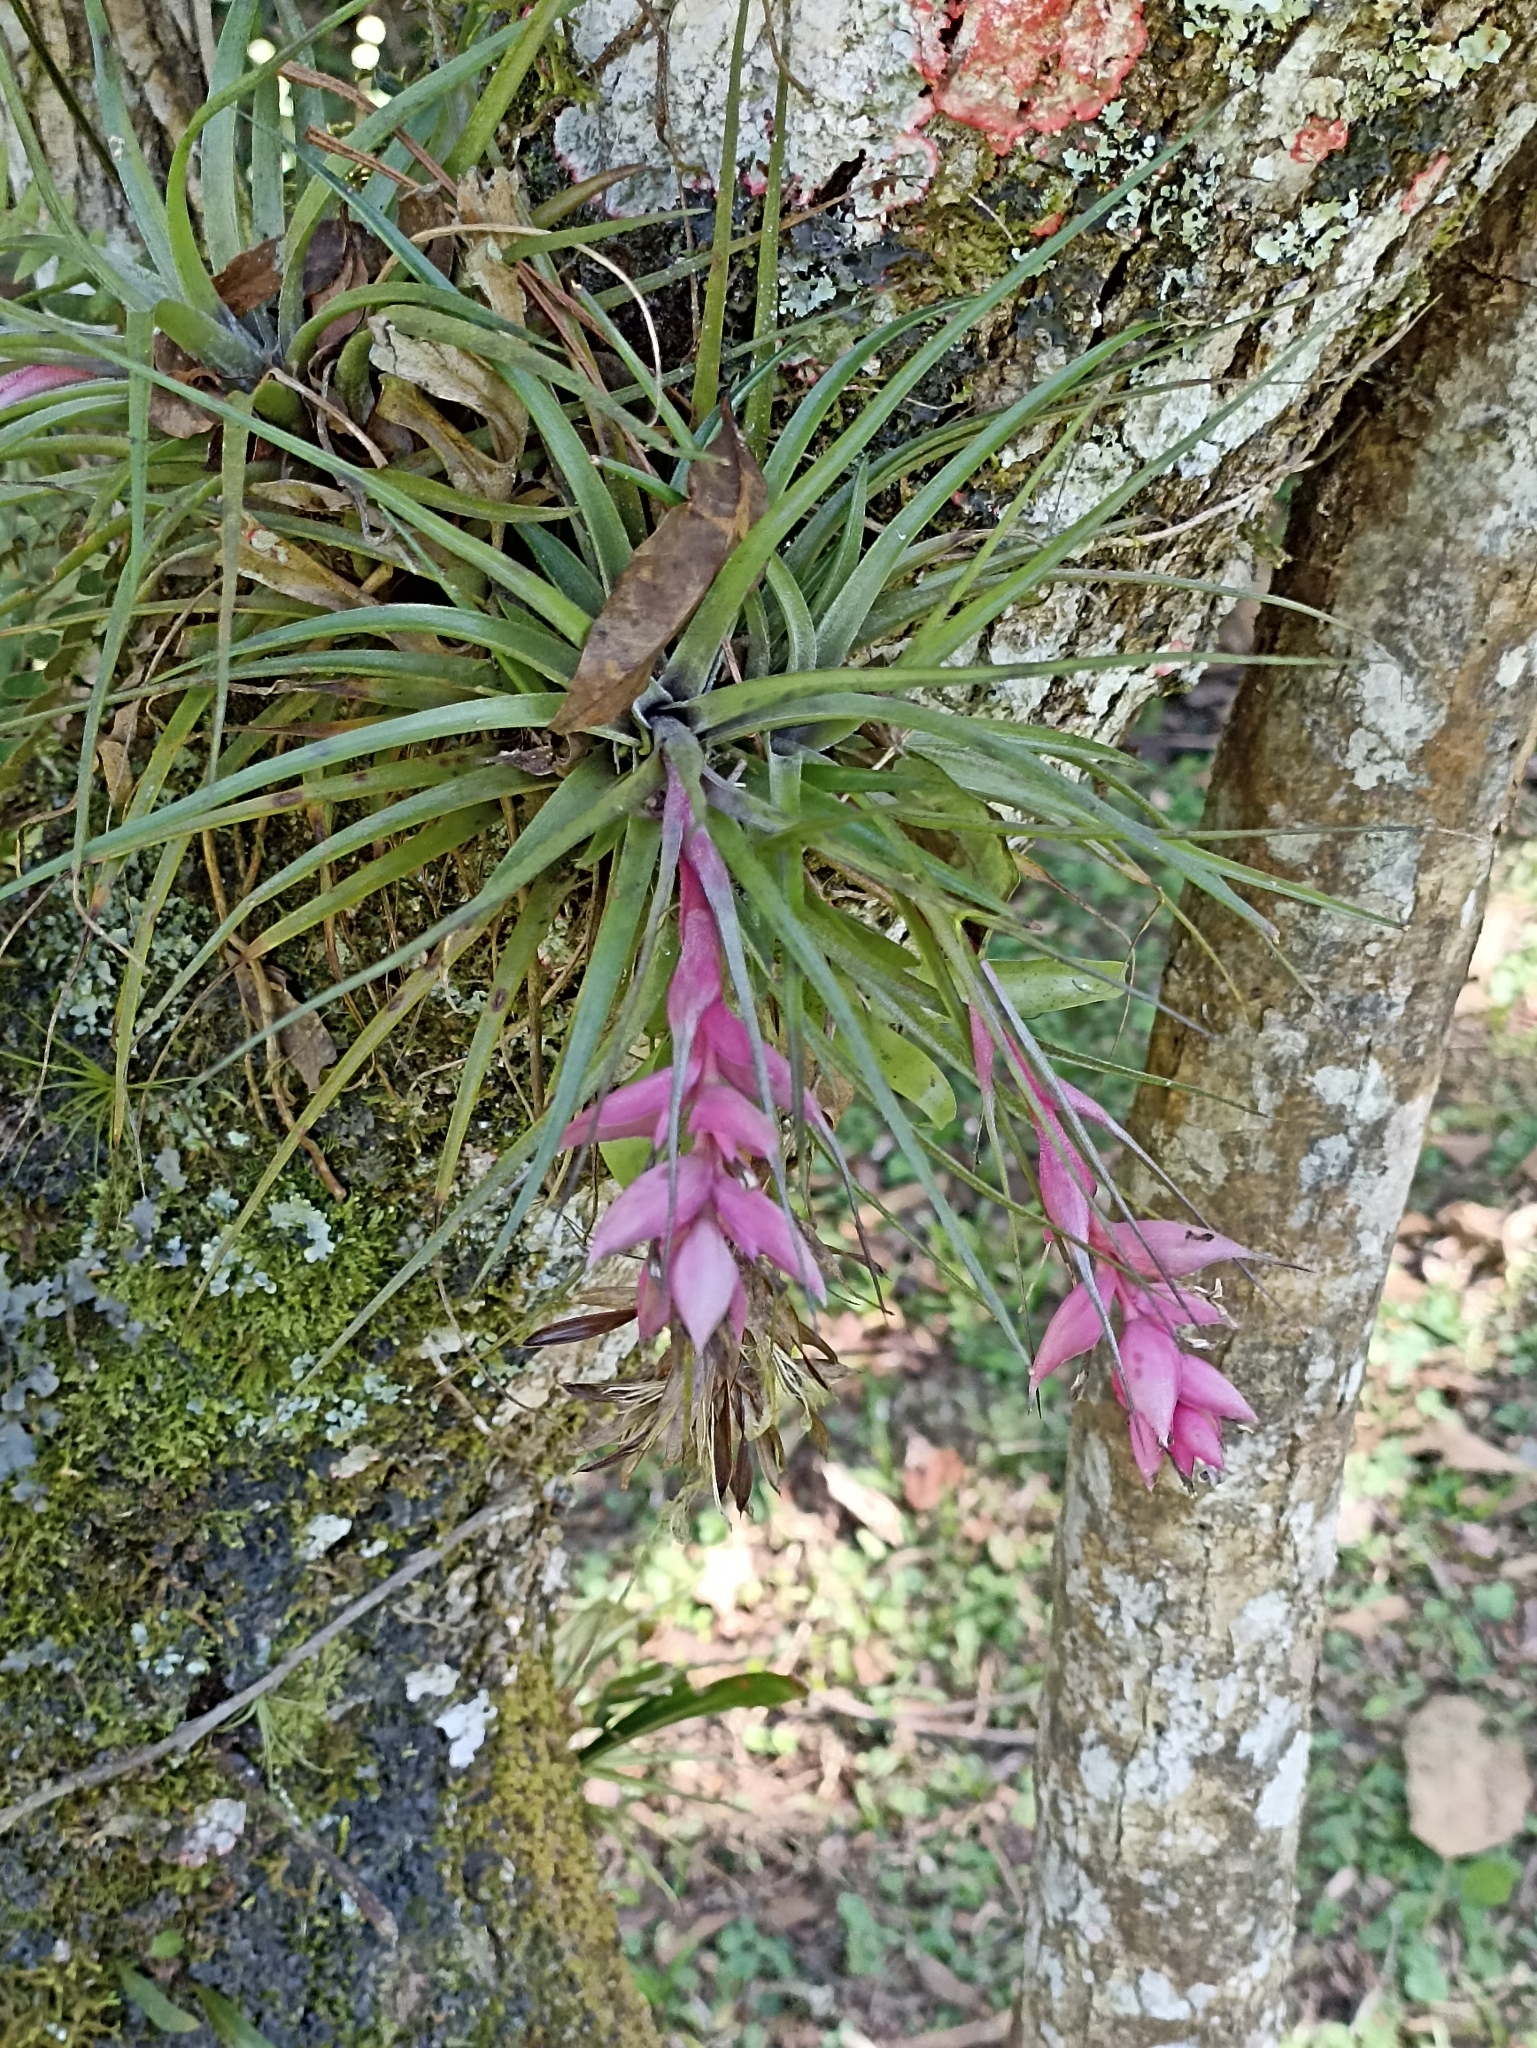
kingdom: Plantae
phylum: Tracheophyta
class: Liliopsida
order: Poales
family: Bromeliaceae
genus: Tillandsia
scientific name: Tillandsia stricta
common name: Airplant
